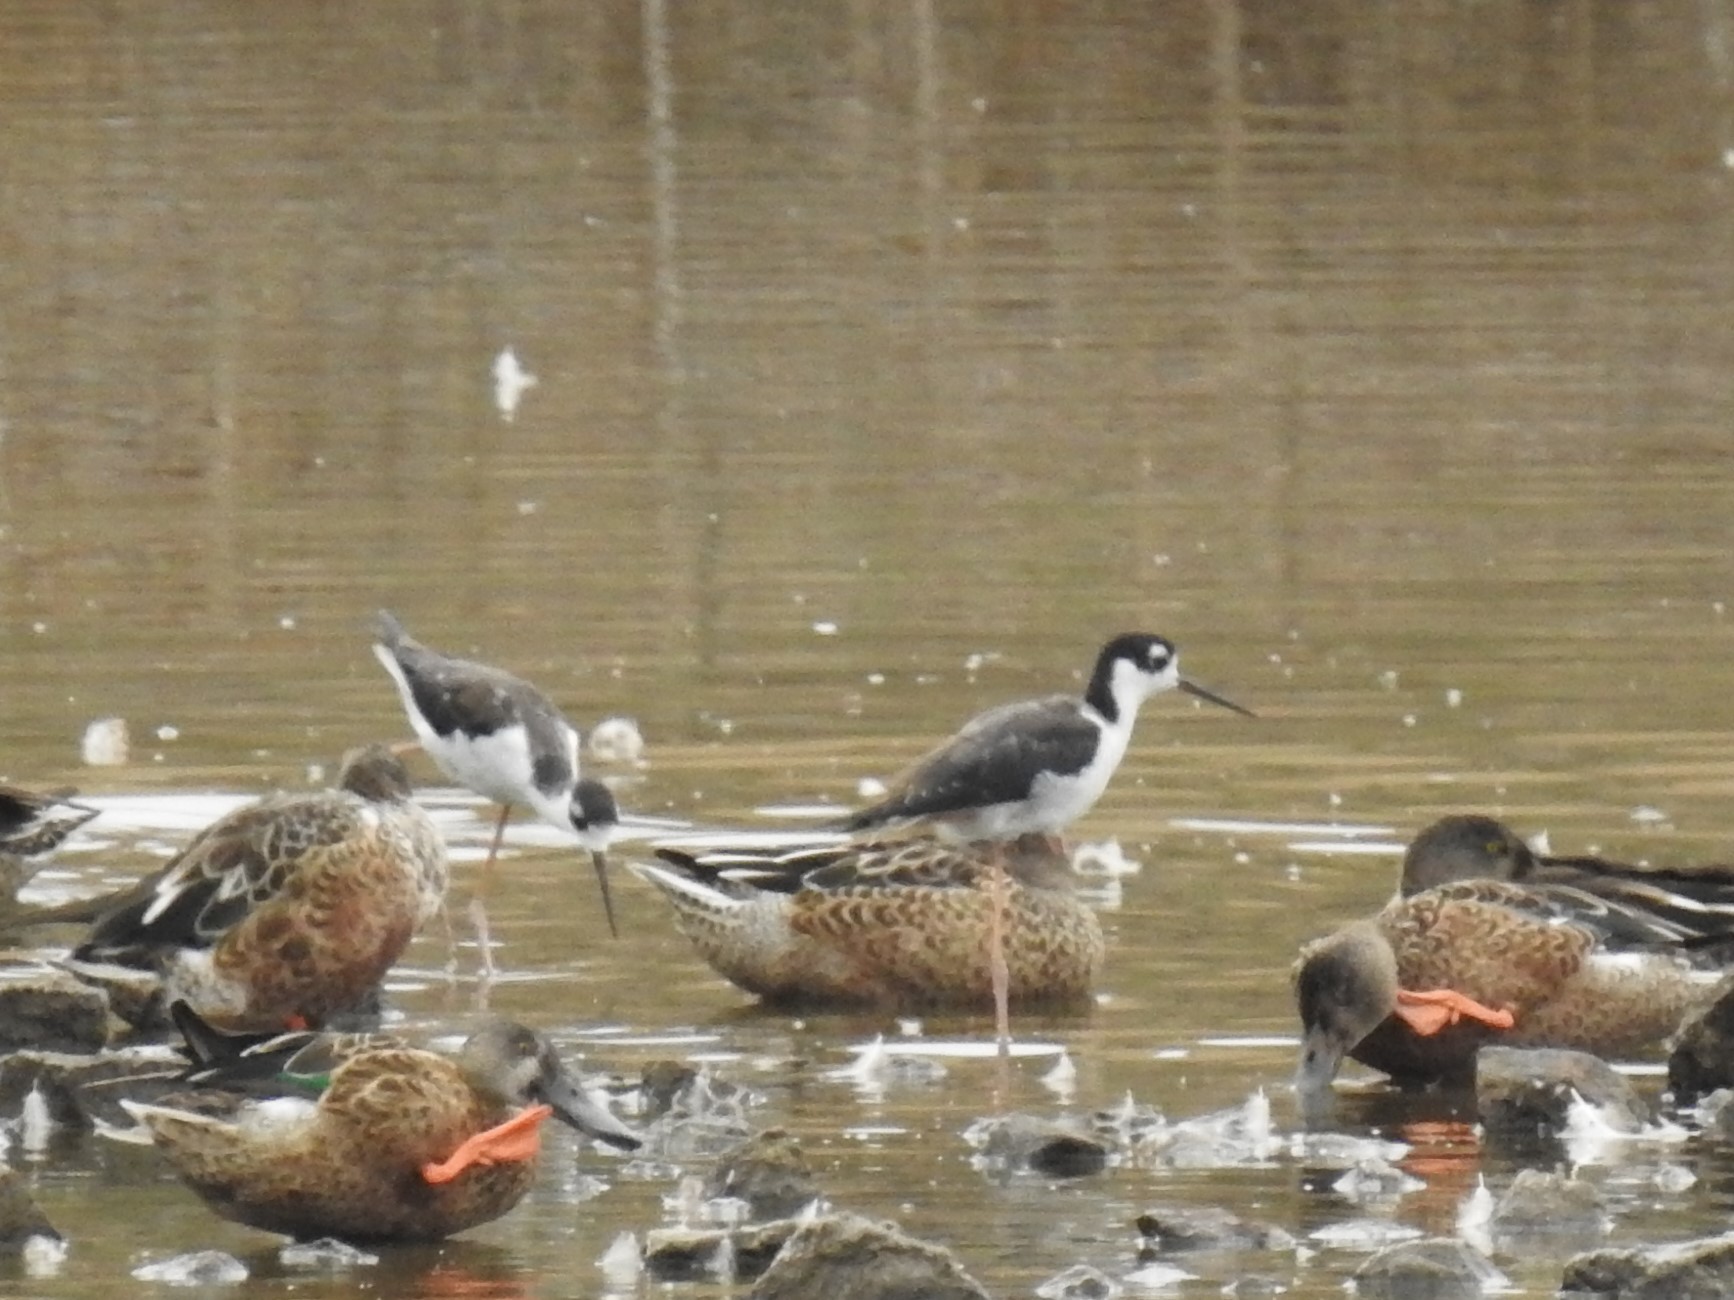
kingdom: Animalia
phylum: Chordata
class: Aves
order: Charadriiformes
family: Recurvirostridae
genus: Himantopus
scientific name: Himantopus mexicanus
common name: Black-necked stilt
